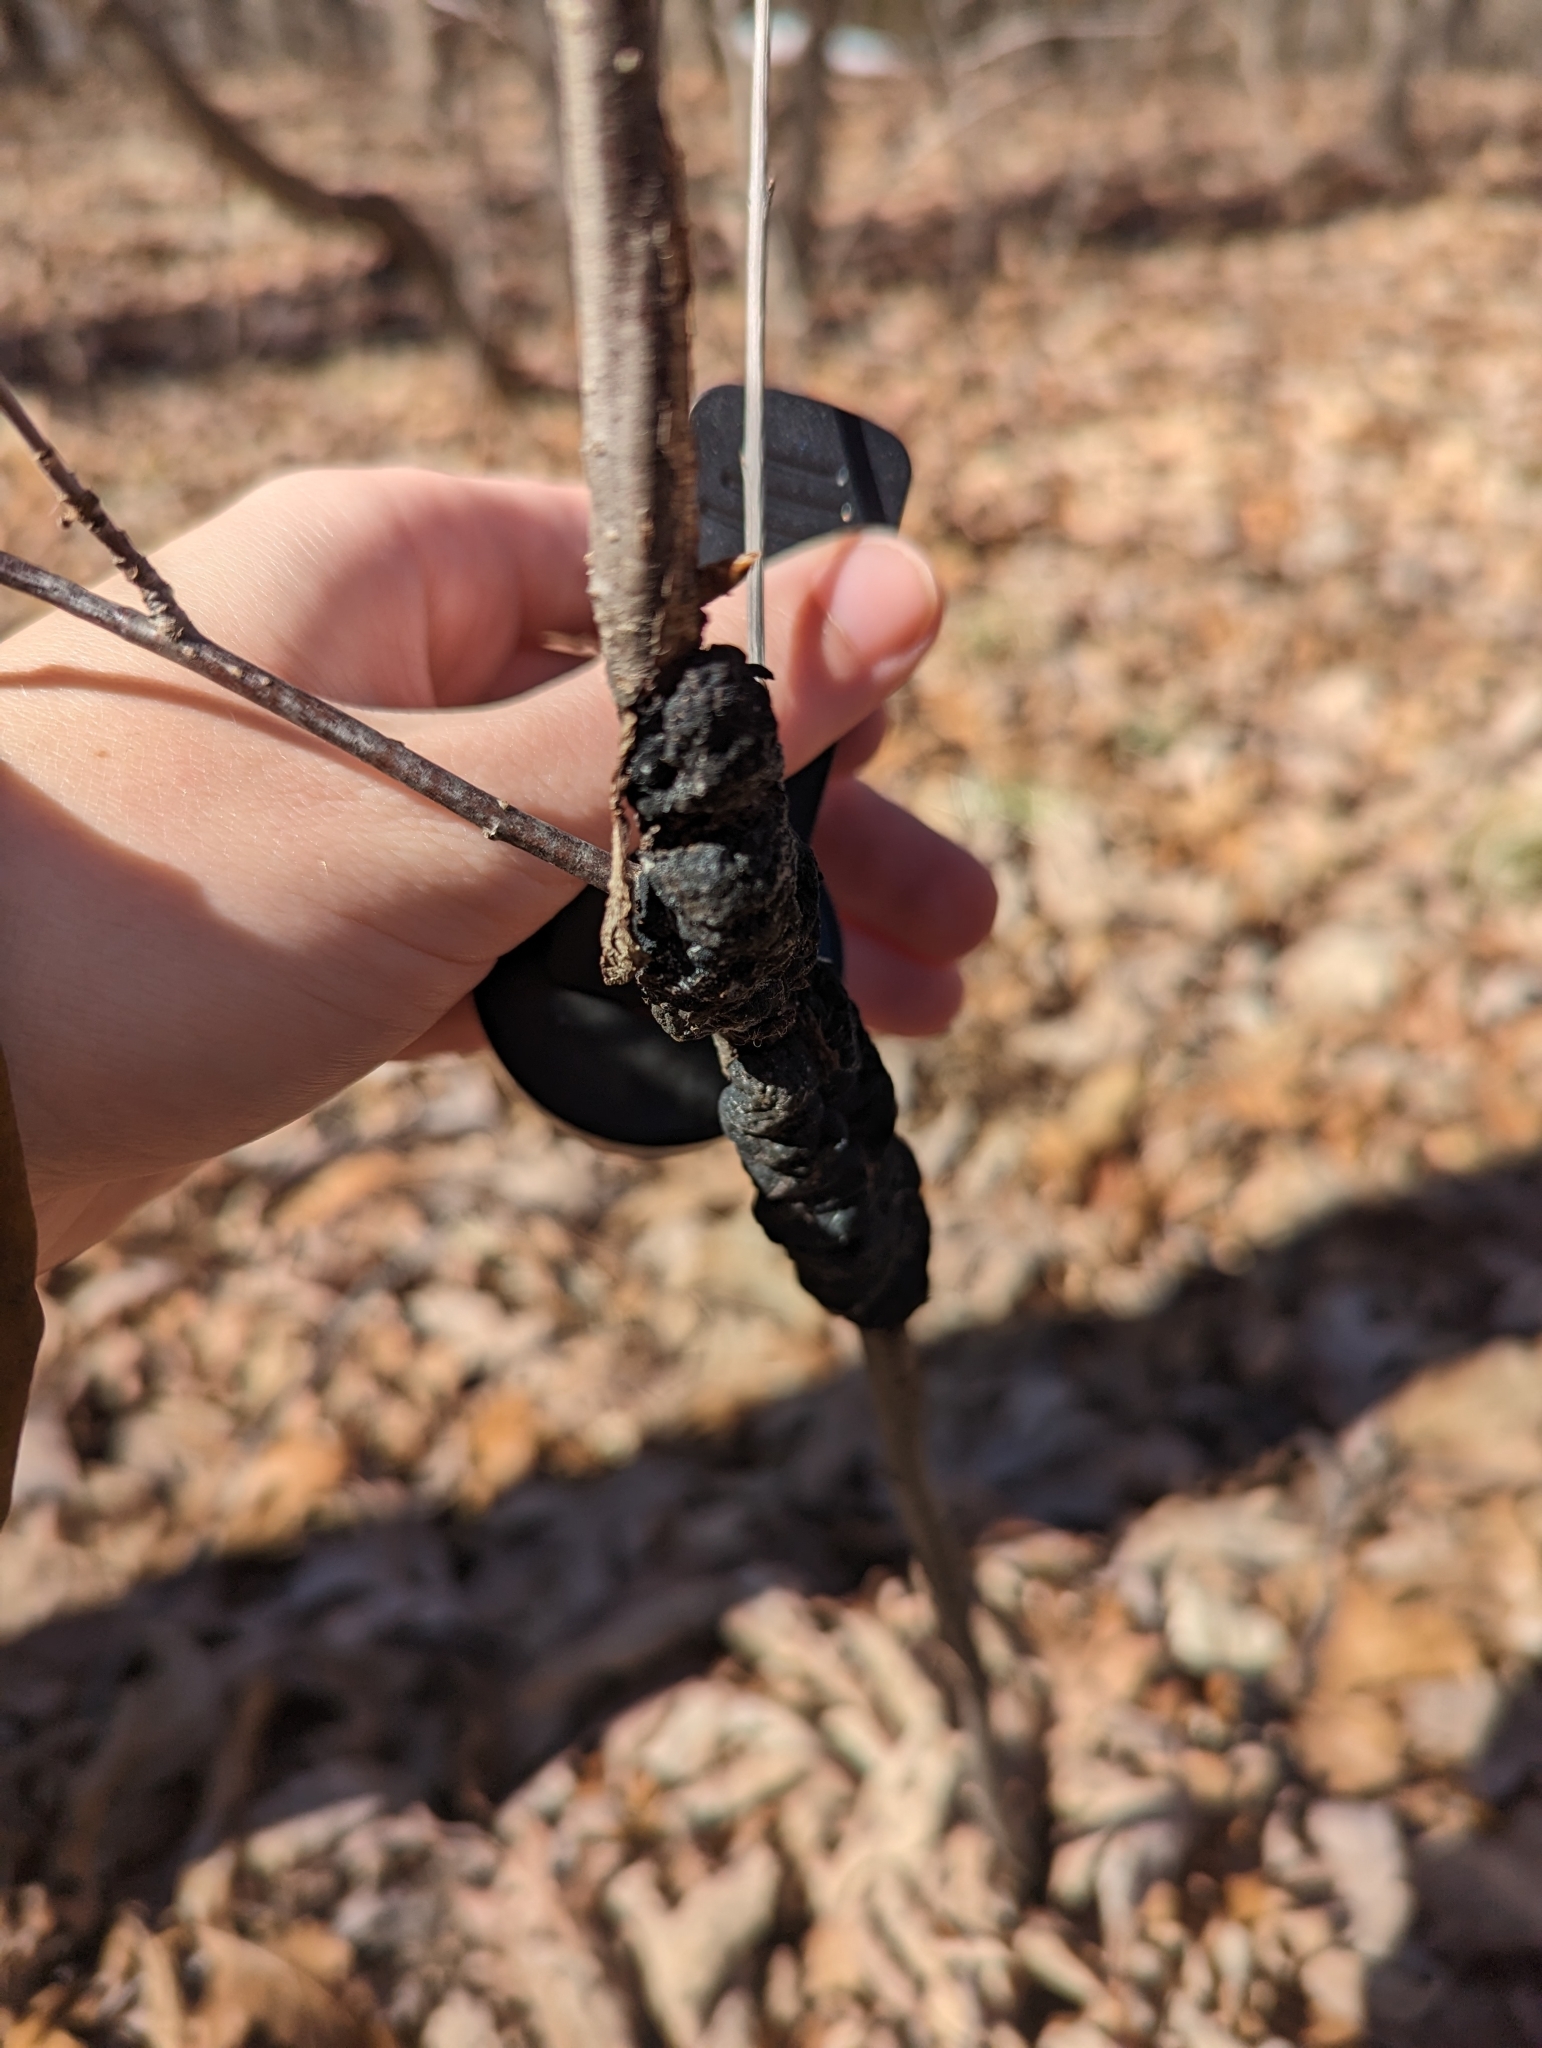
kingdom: Fungi
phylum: Ascomycota
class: Dothideomycetes
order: Venturiales
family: Venturiaceae
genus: Apiosporina
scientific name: Apiosporina morbosa
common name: Black knot
